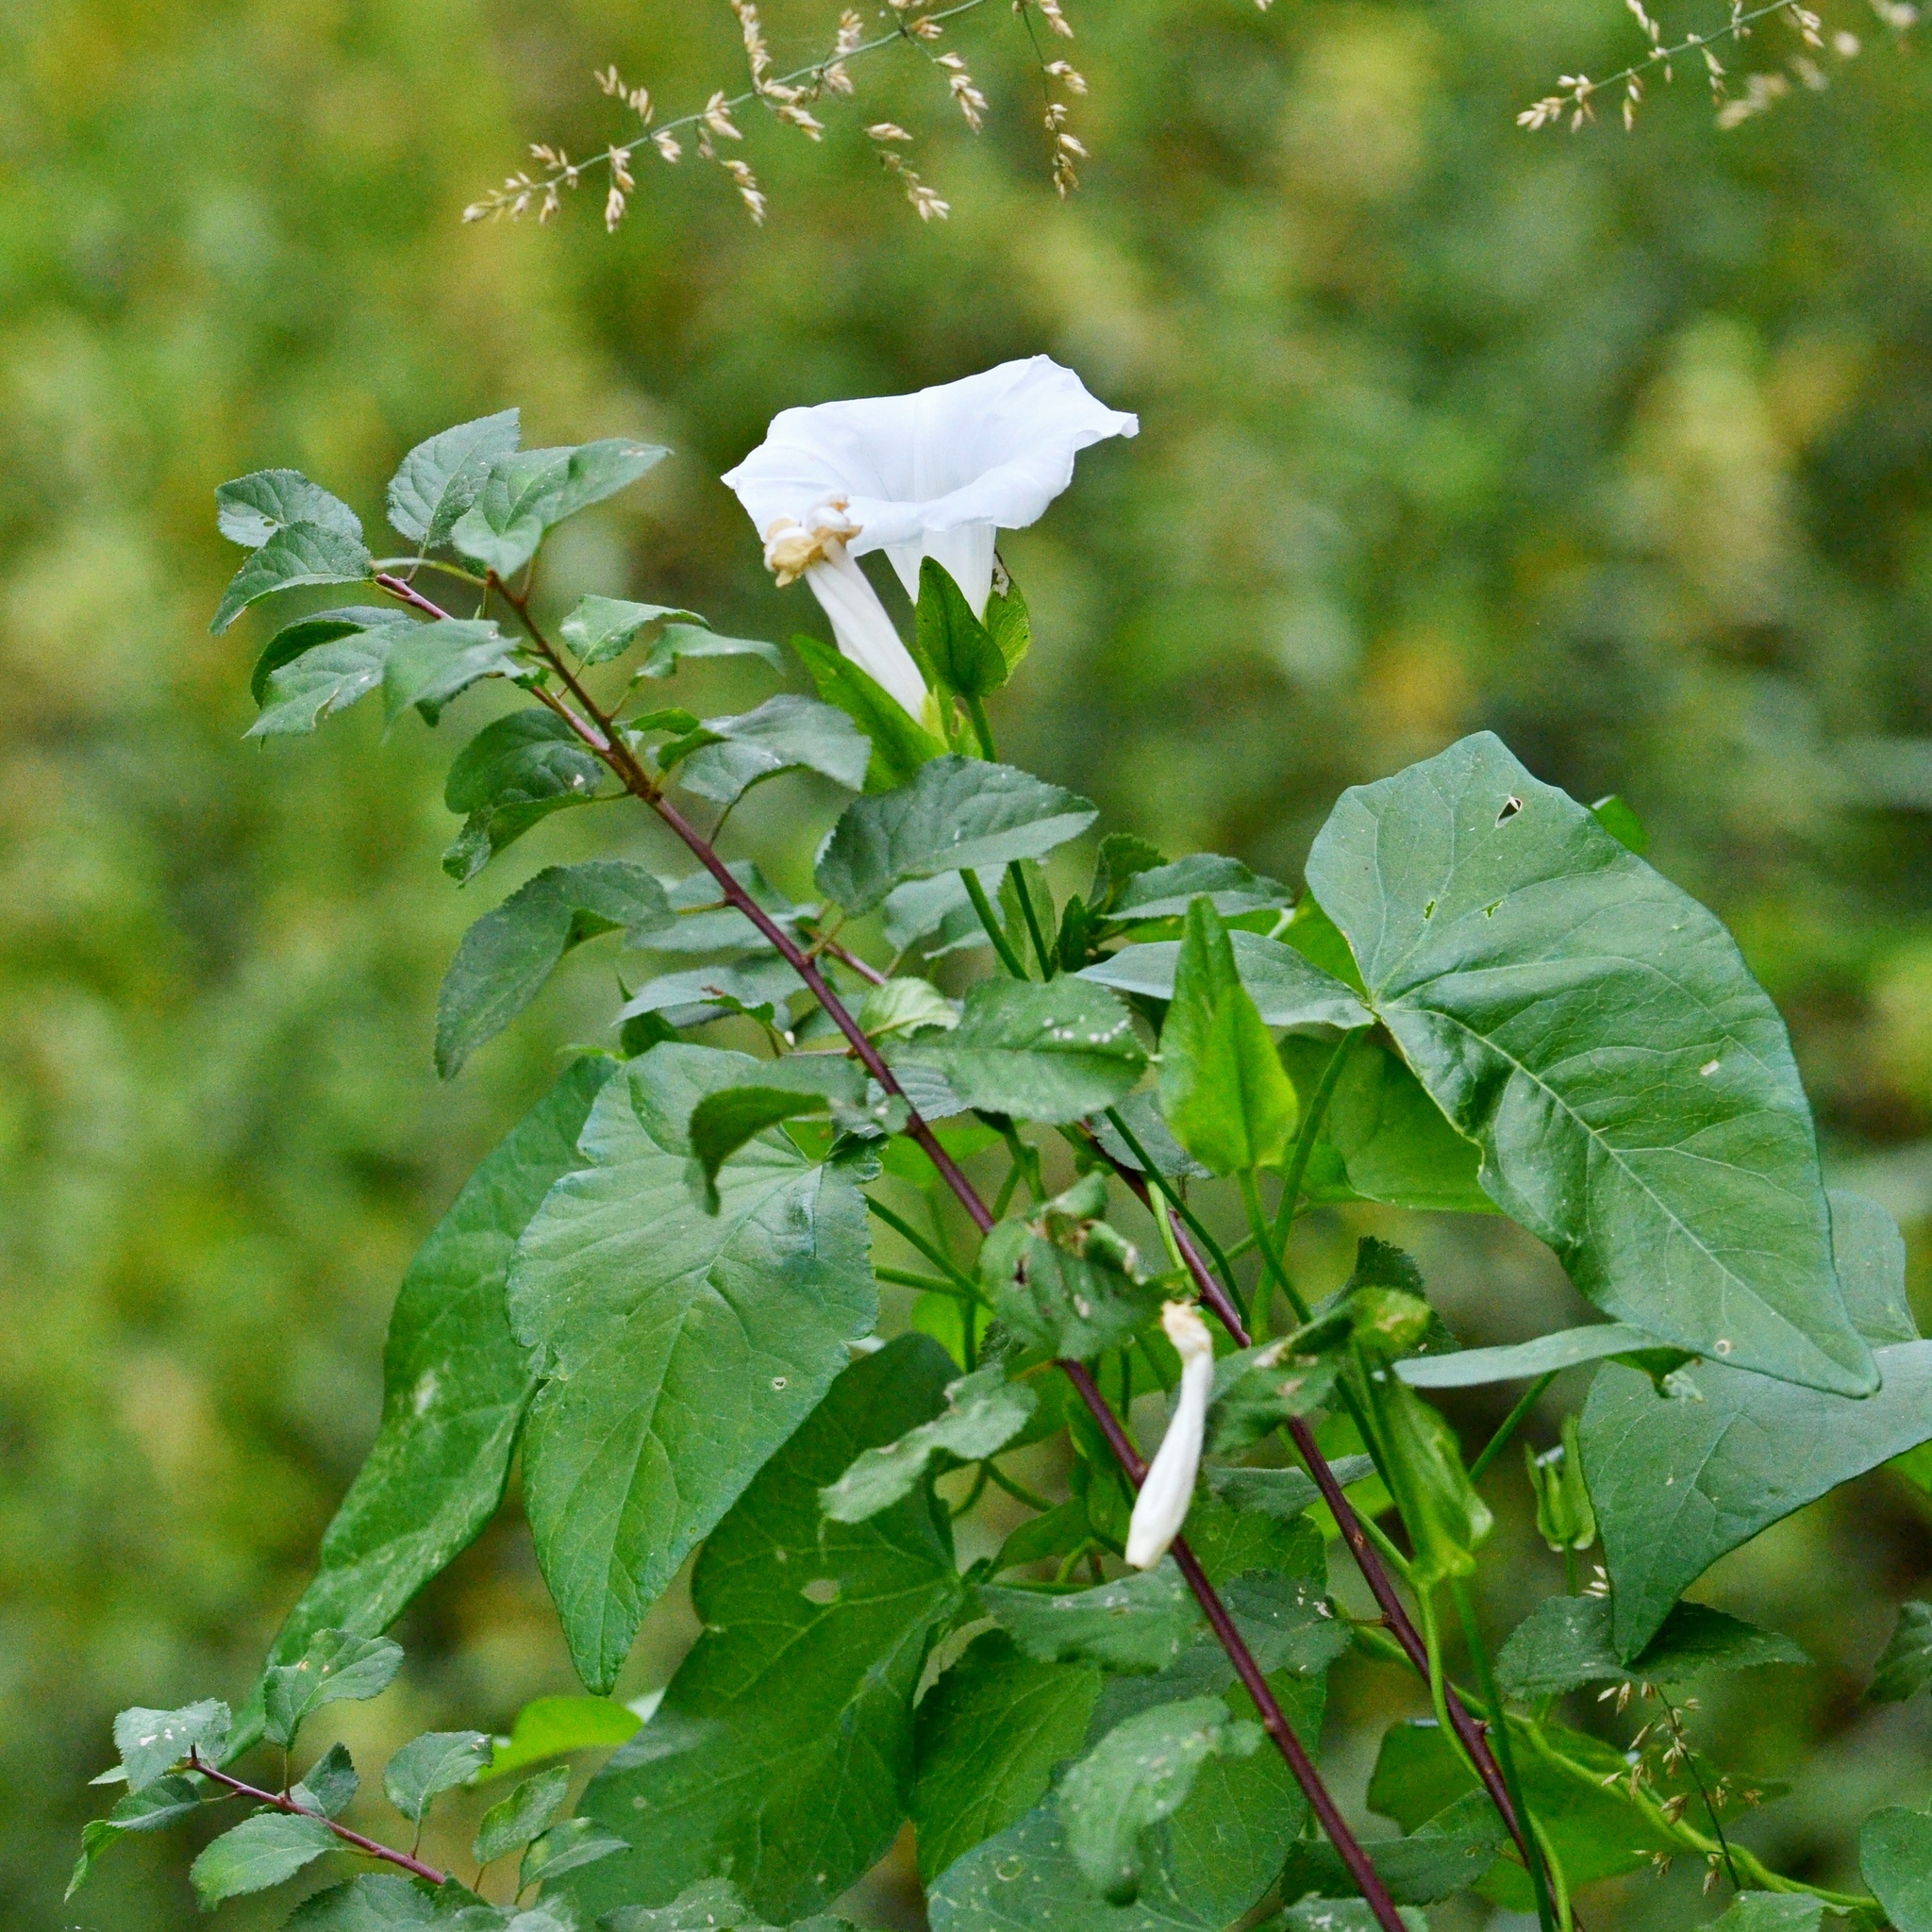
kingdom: Plantae
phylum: Tracheophyta
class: Magnoliopsida
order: Solanales
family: Convolvulaceae
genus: Calystegia
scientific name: Calystegia sepium
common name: Hedge bindweed
